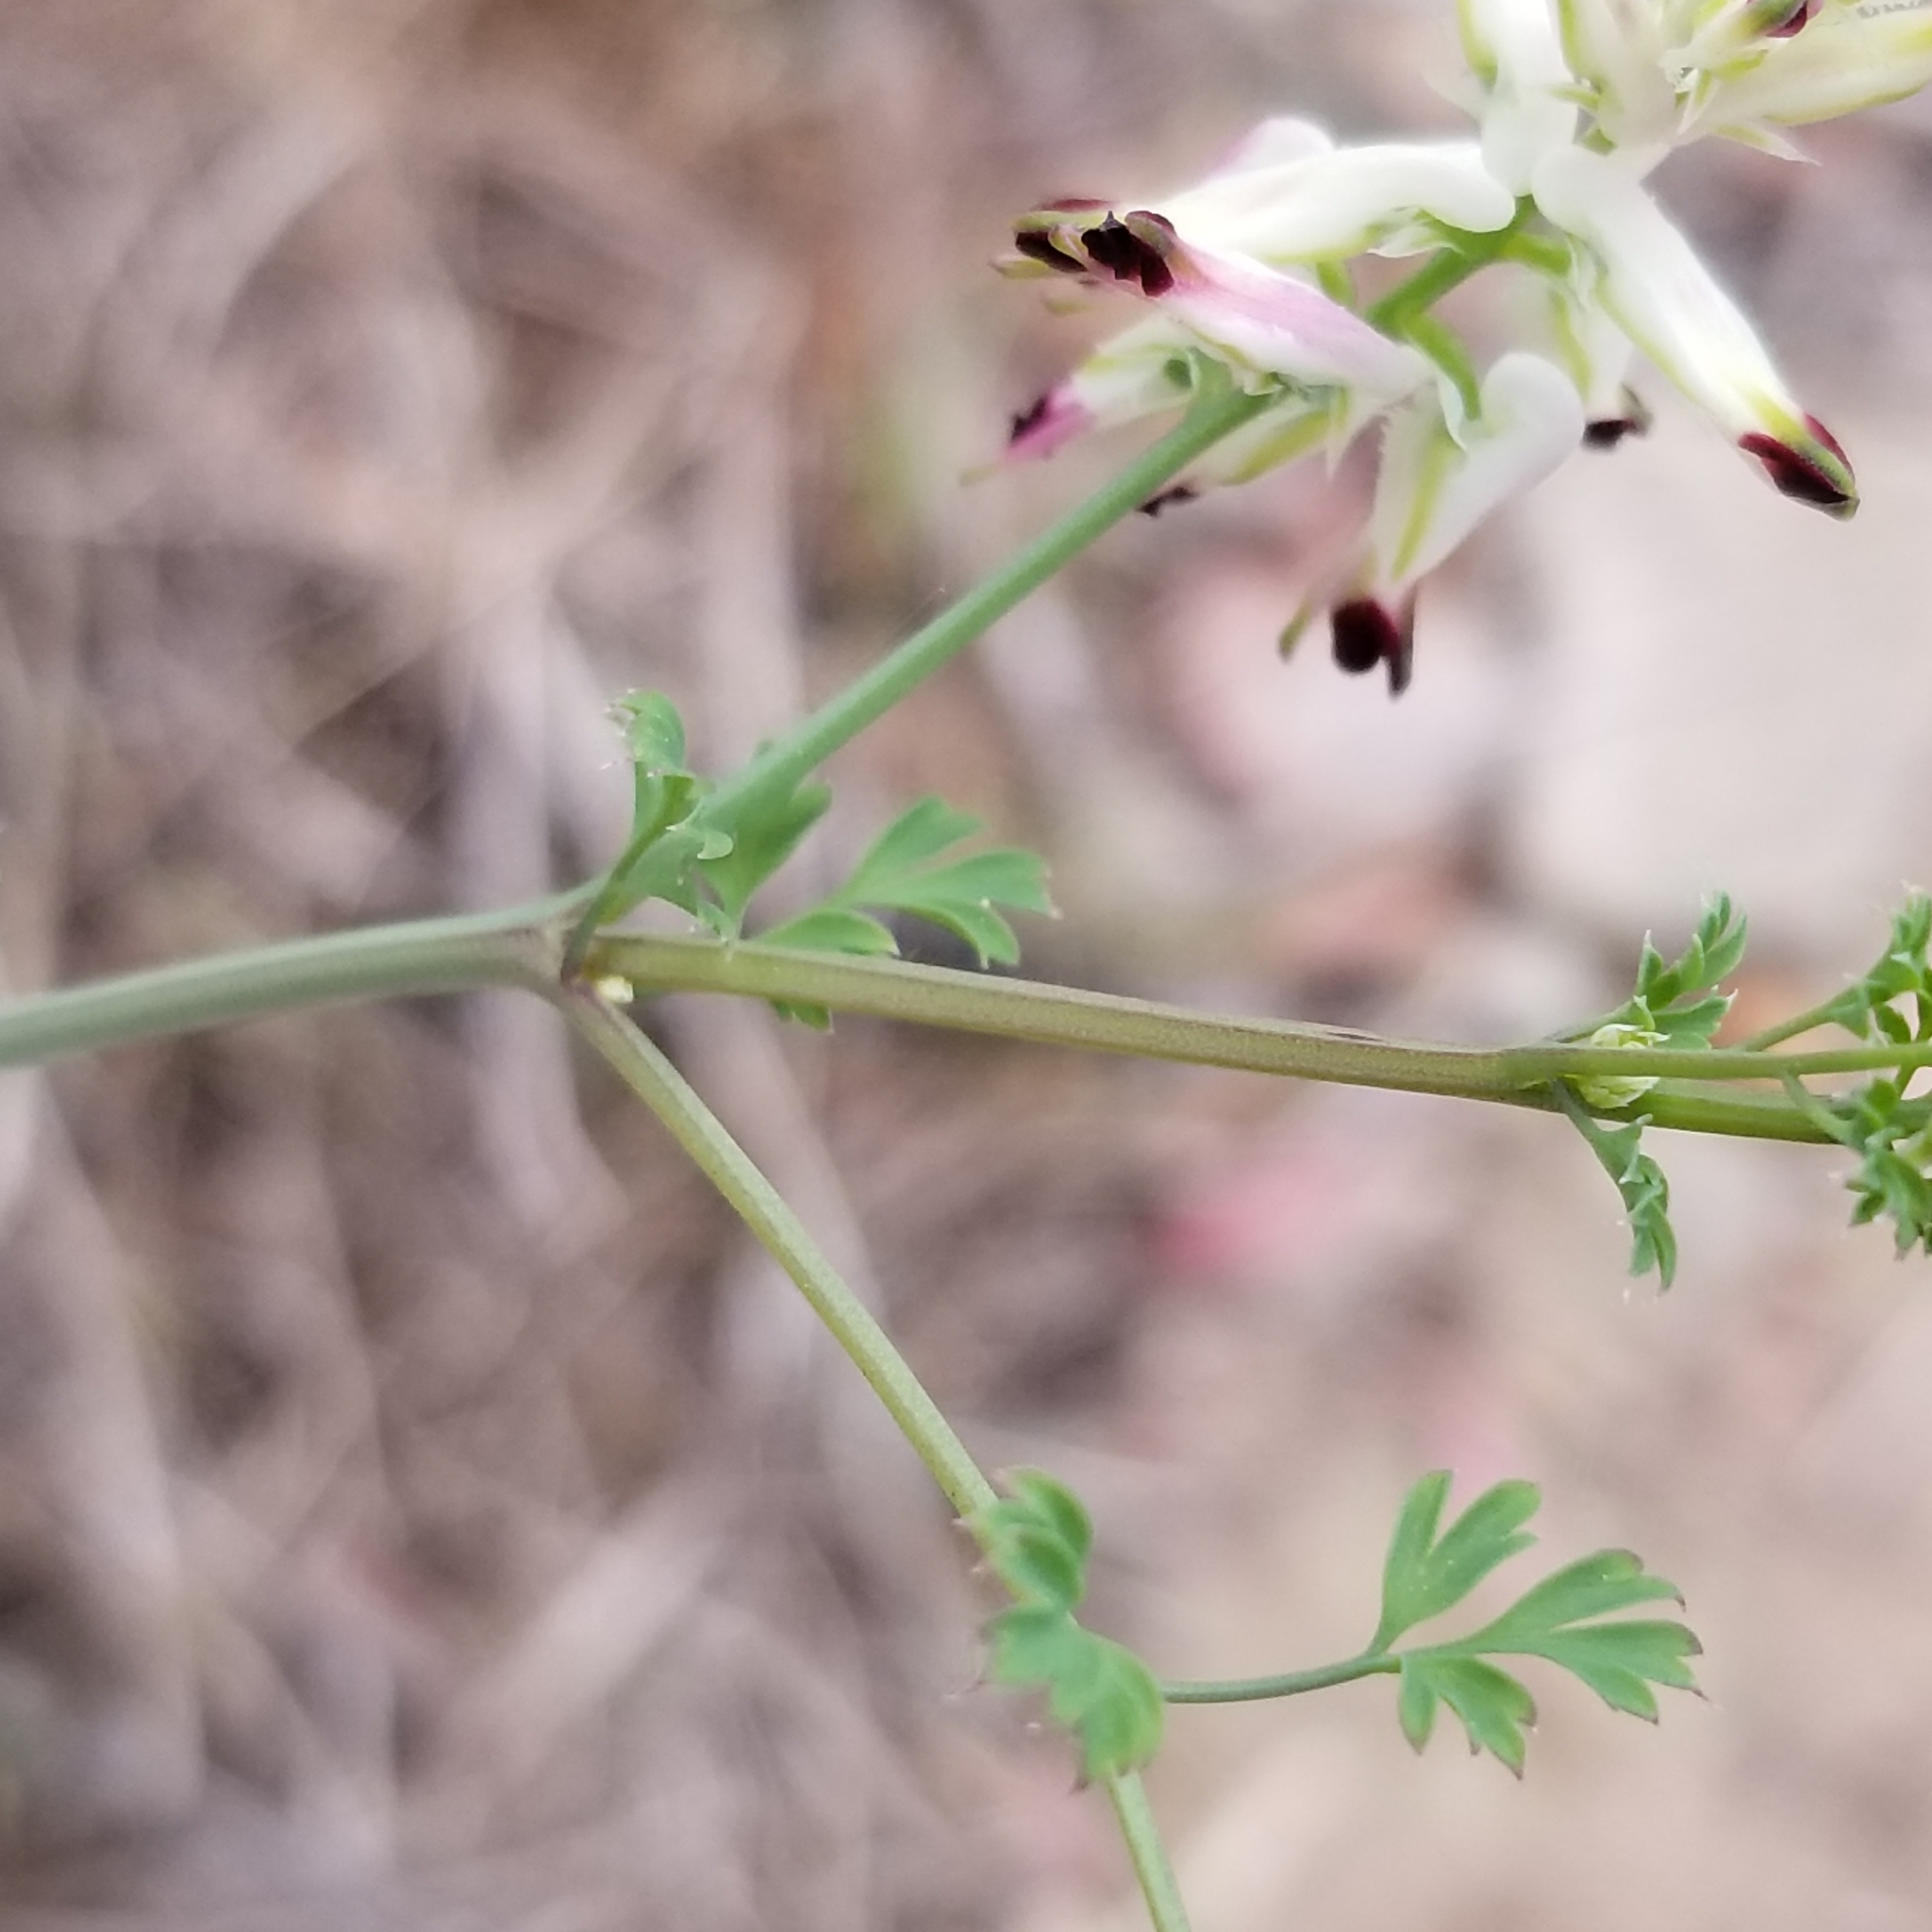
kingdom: Plantae
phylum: Tracheophyta
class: Magnoliopsida
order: Ranunculales
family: Papaveraceae
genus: Fumaria
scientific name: Fumaria capreolata
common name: White ramping-fumitory
